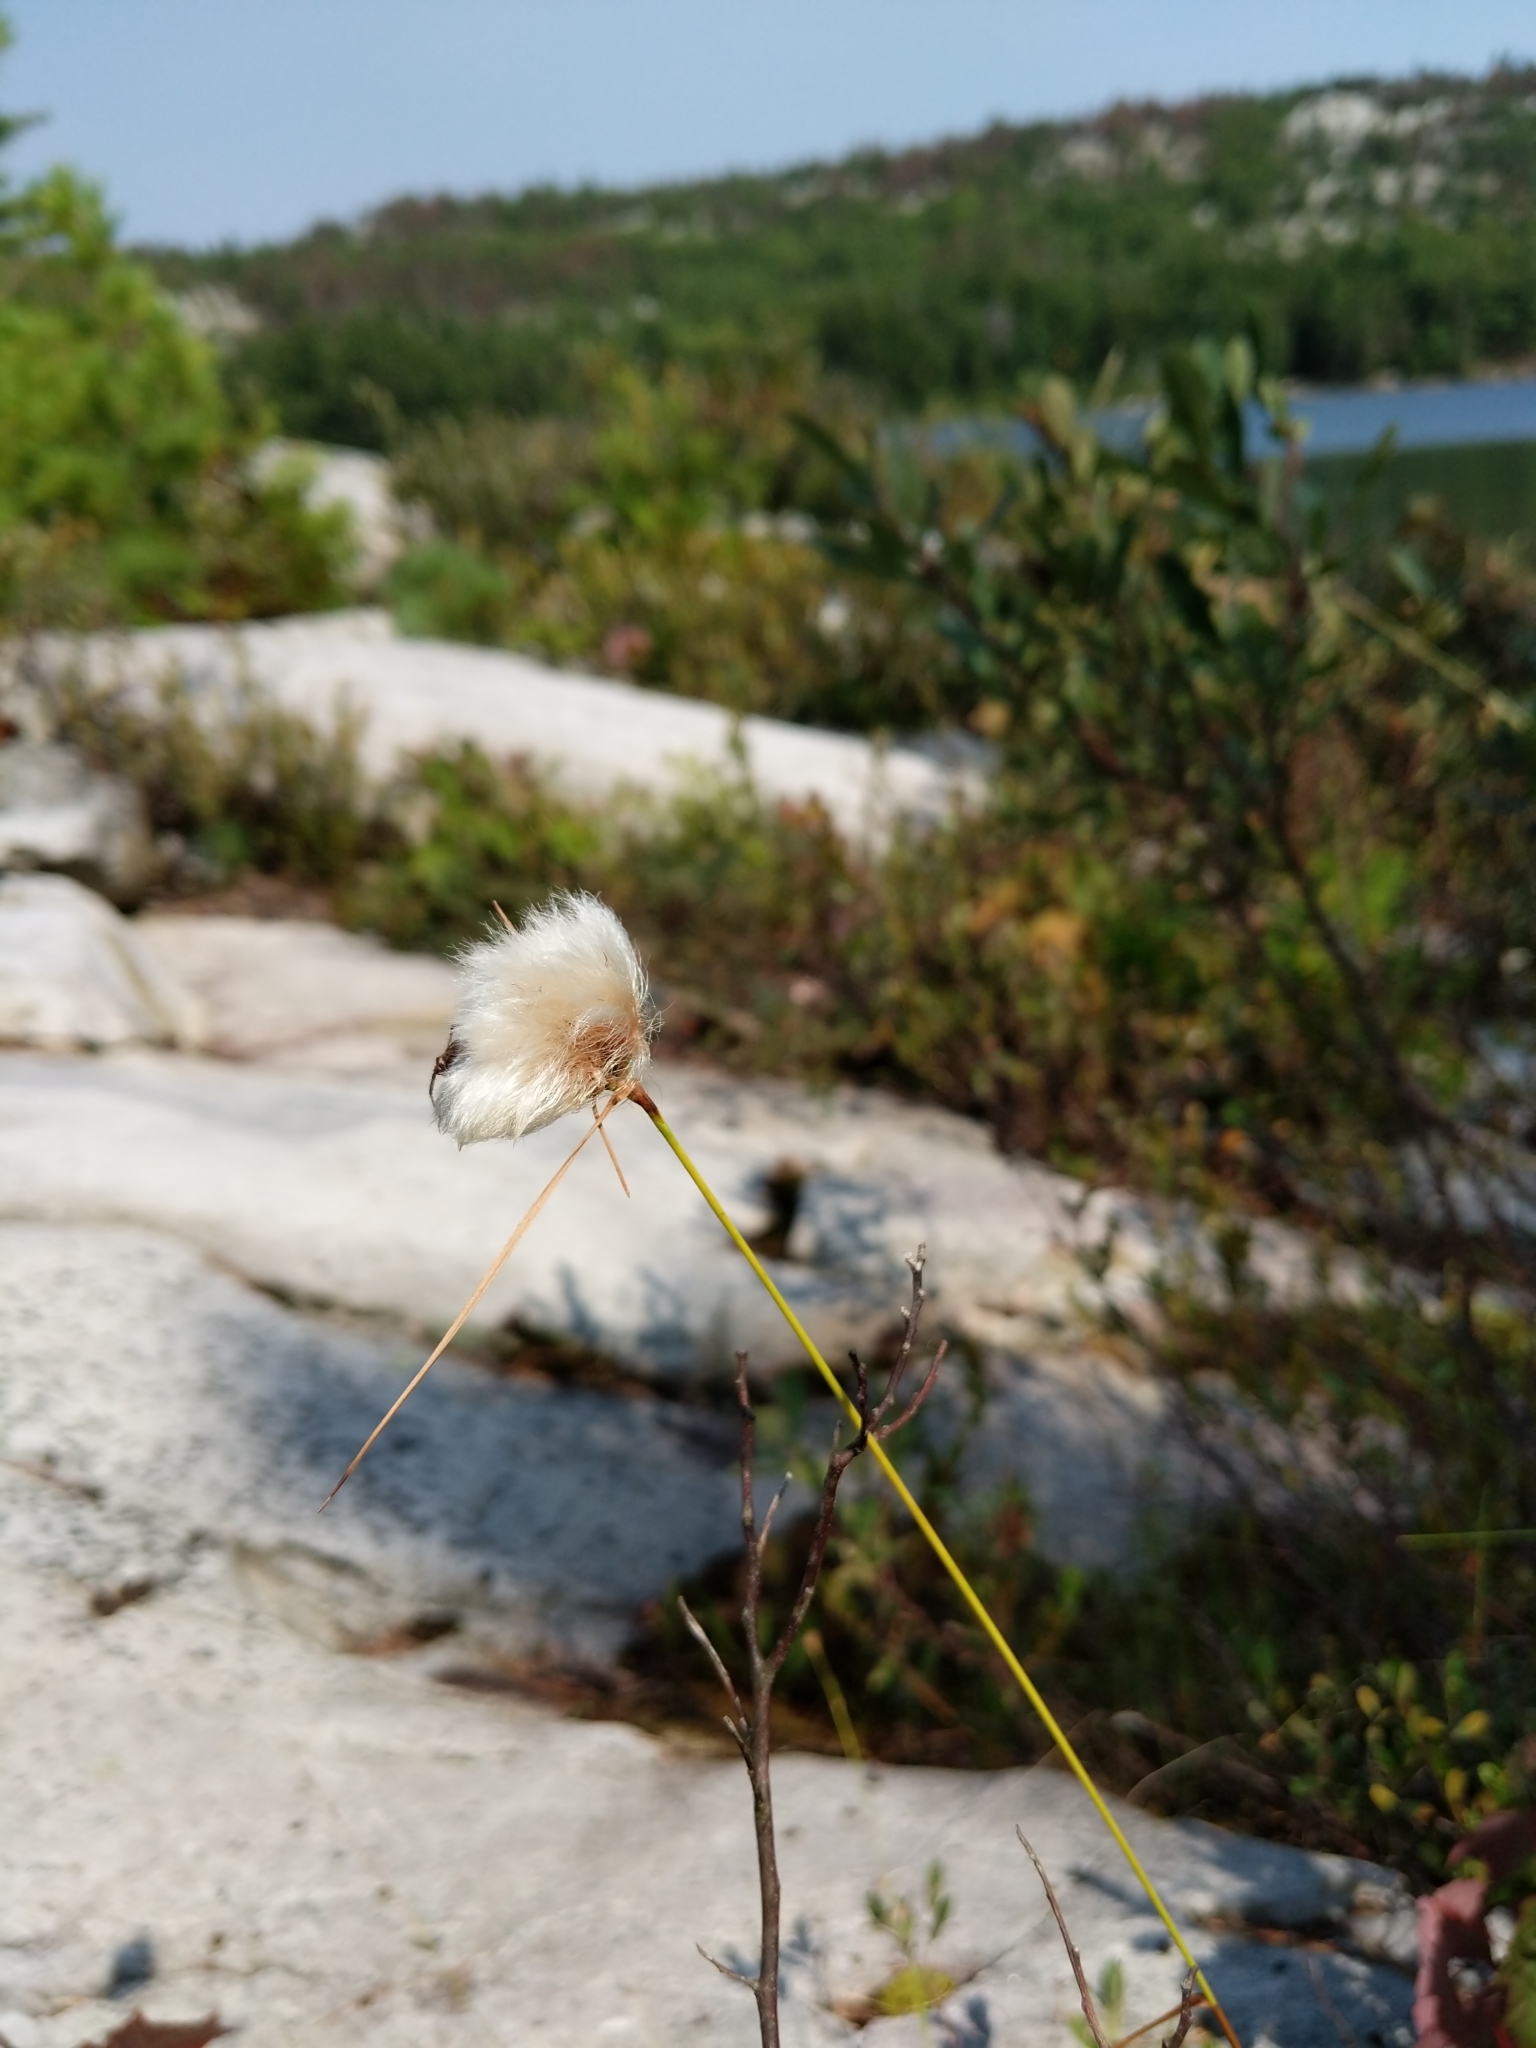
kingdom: Plantae
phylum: Tracheophyta
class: Liliopsida
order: Poales
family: Cyperaceae
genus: Eriophorum
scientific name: Eriophorum virginicum
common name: Tawny cottongrass
